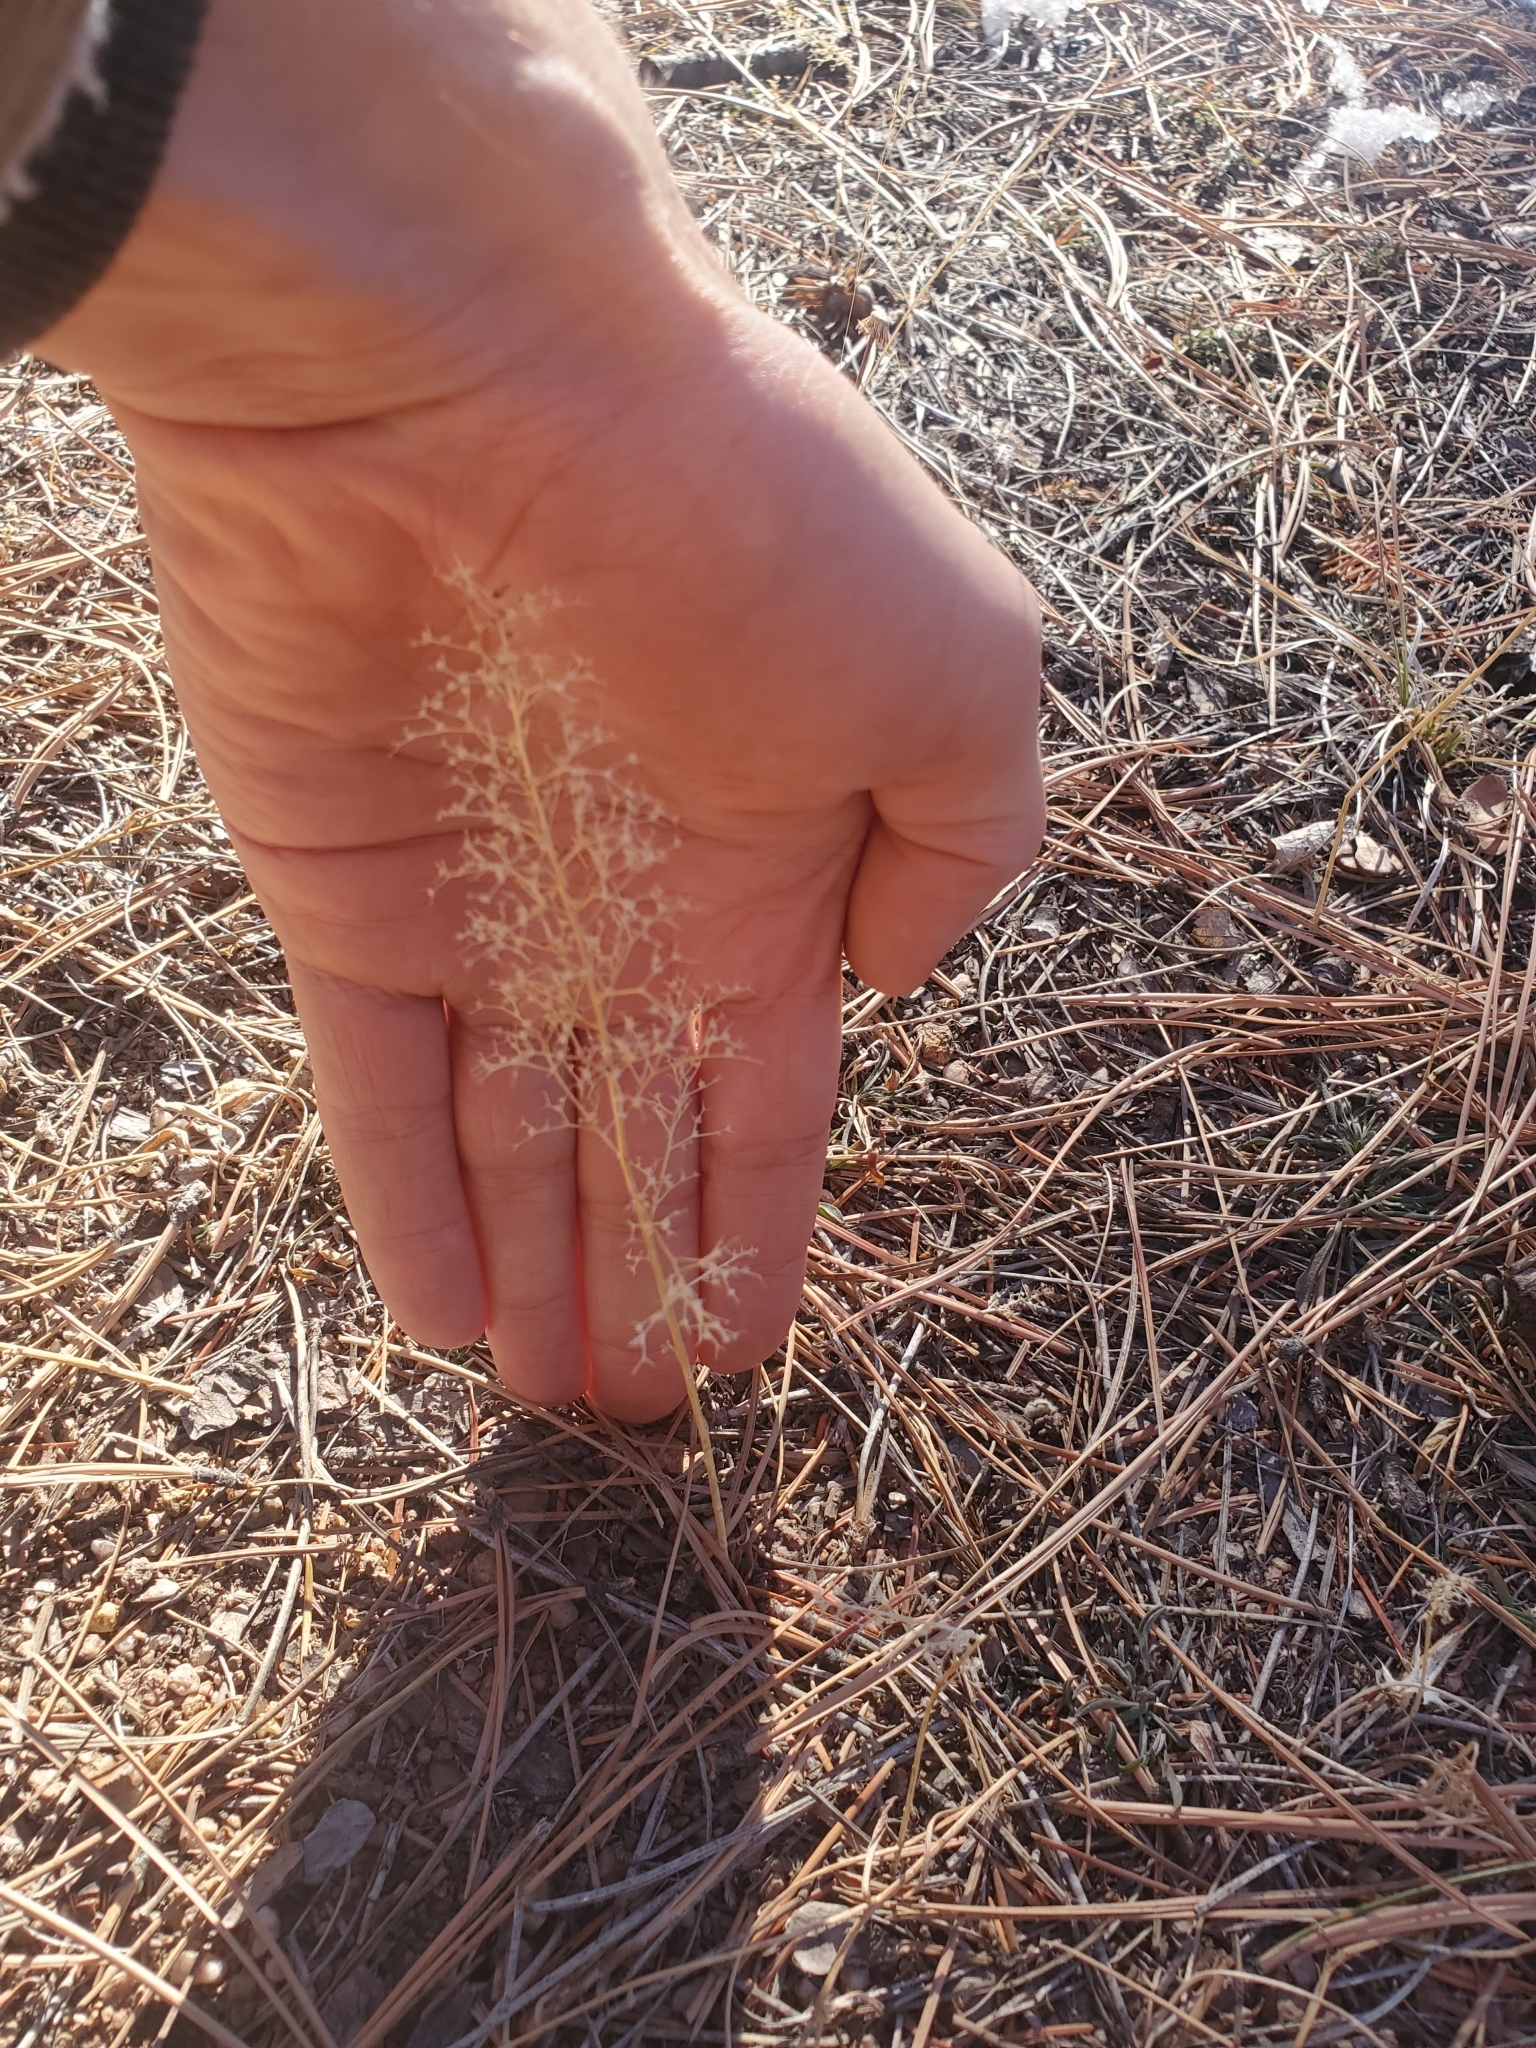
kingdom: Plantae
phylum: Tracheophyta
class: Magnoliopsida
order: Caryophyllales
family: Amaranthaceae
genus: Dysphania
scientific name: Dysphania incisa
